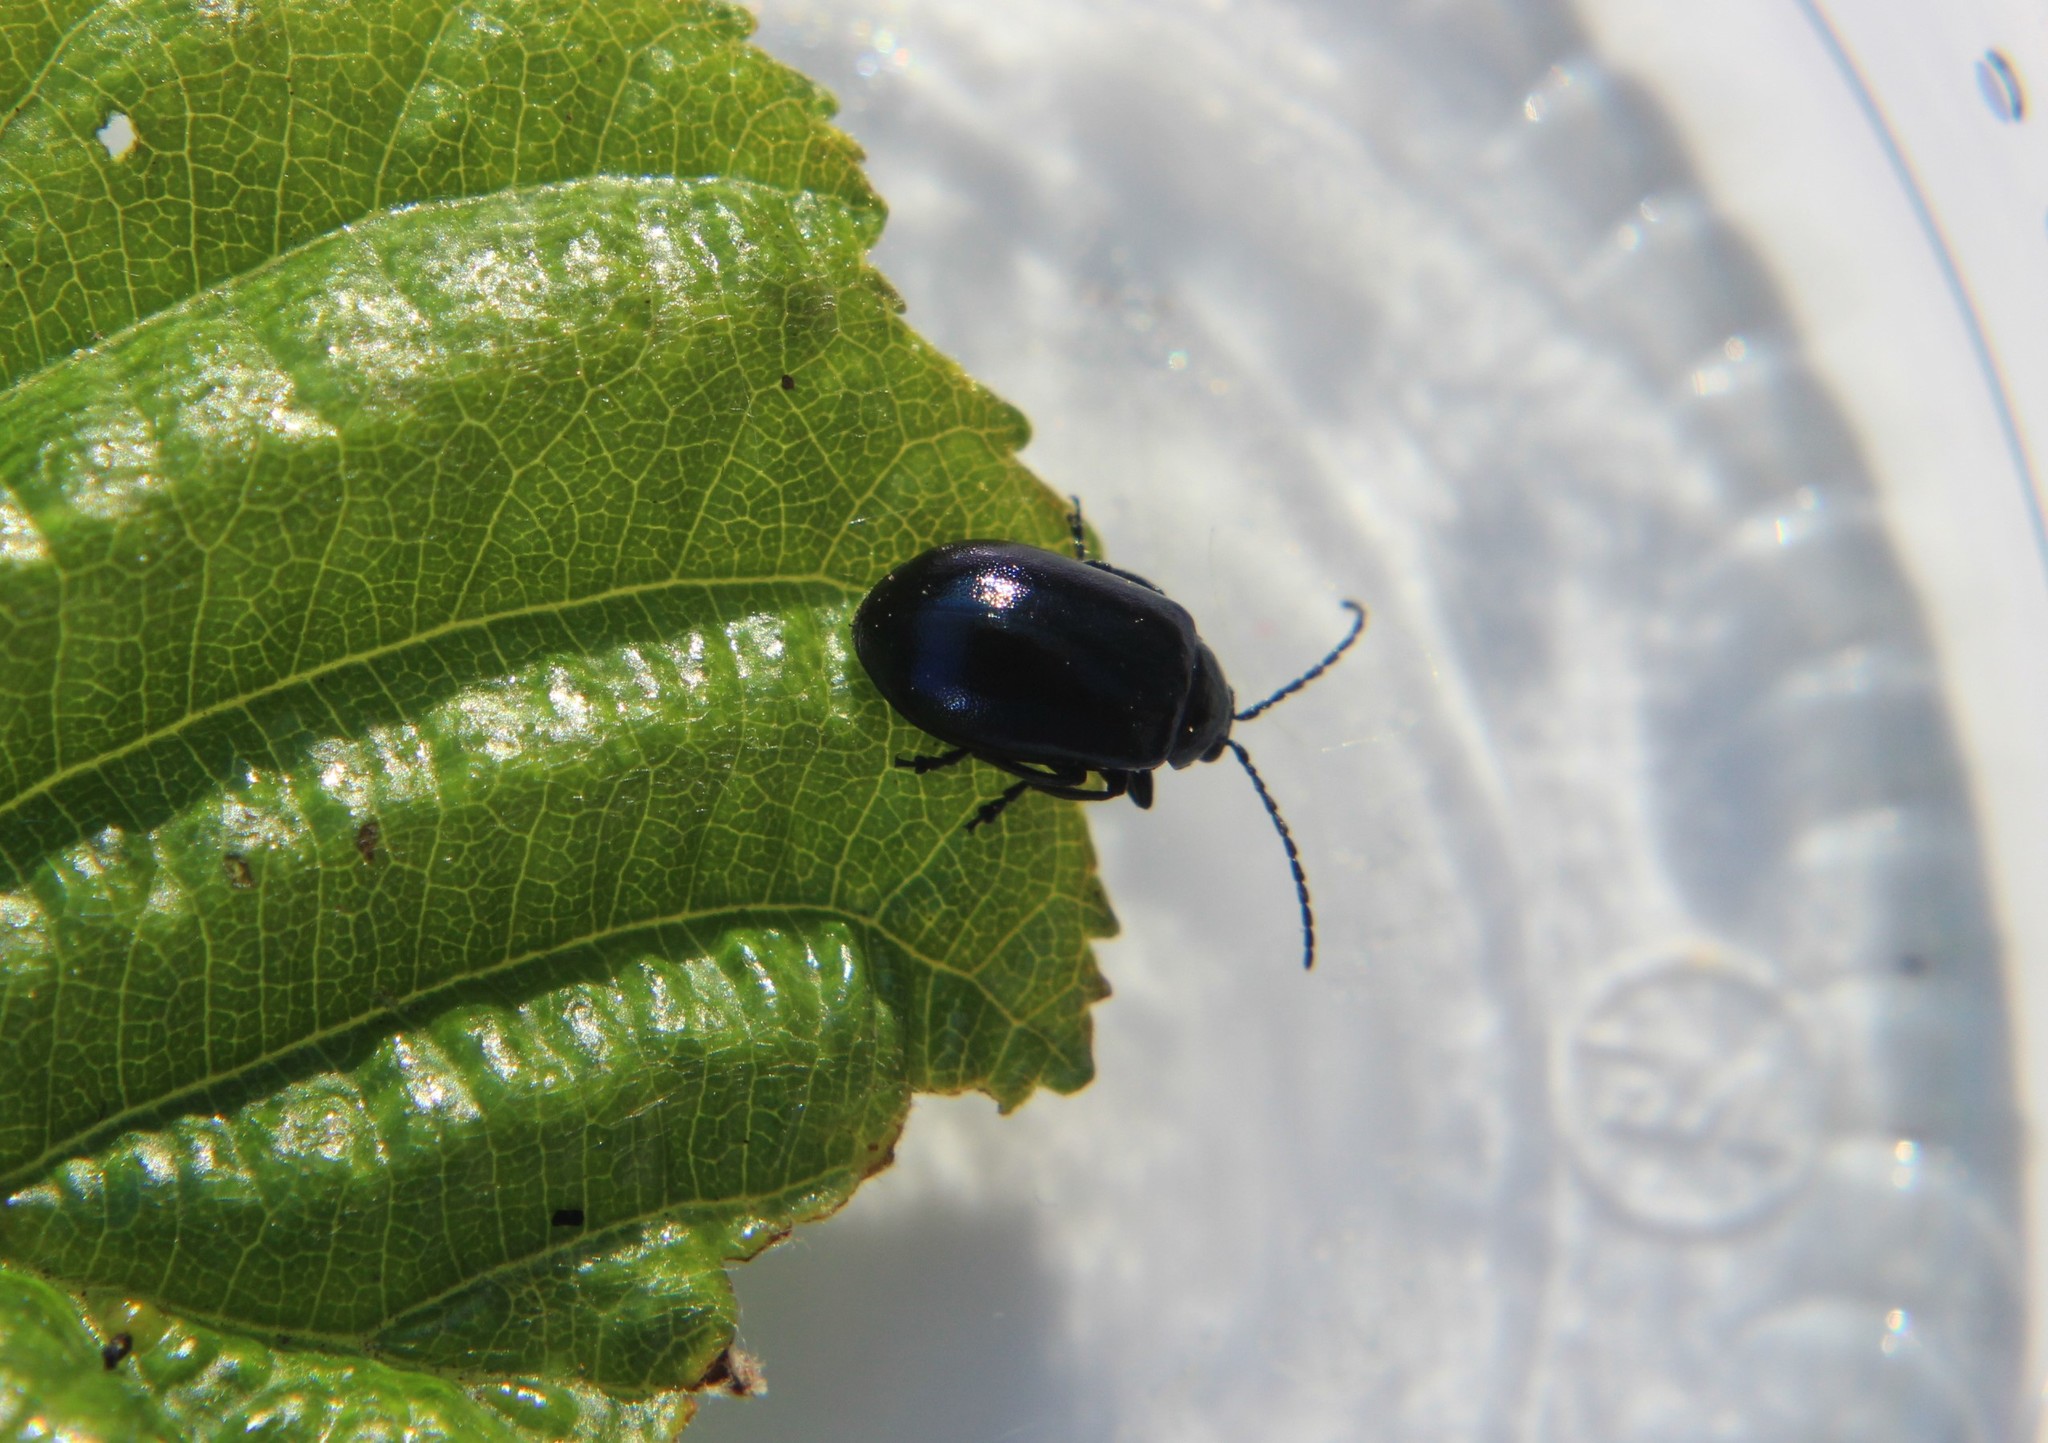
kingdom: Animalia
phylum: Arthropoda
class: Insecta
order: Coleoptera
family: Chrysomelidae
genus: Agelastica
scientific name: Agelastica alni
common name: Alder leaf beetle
